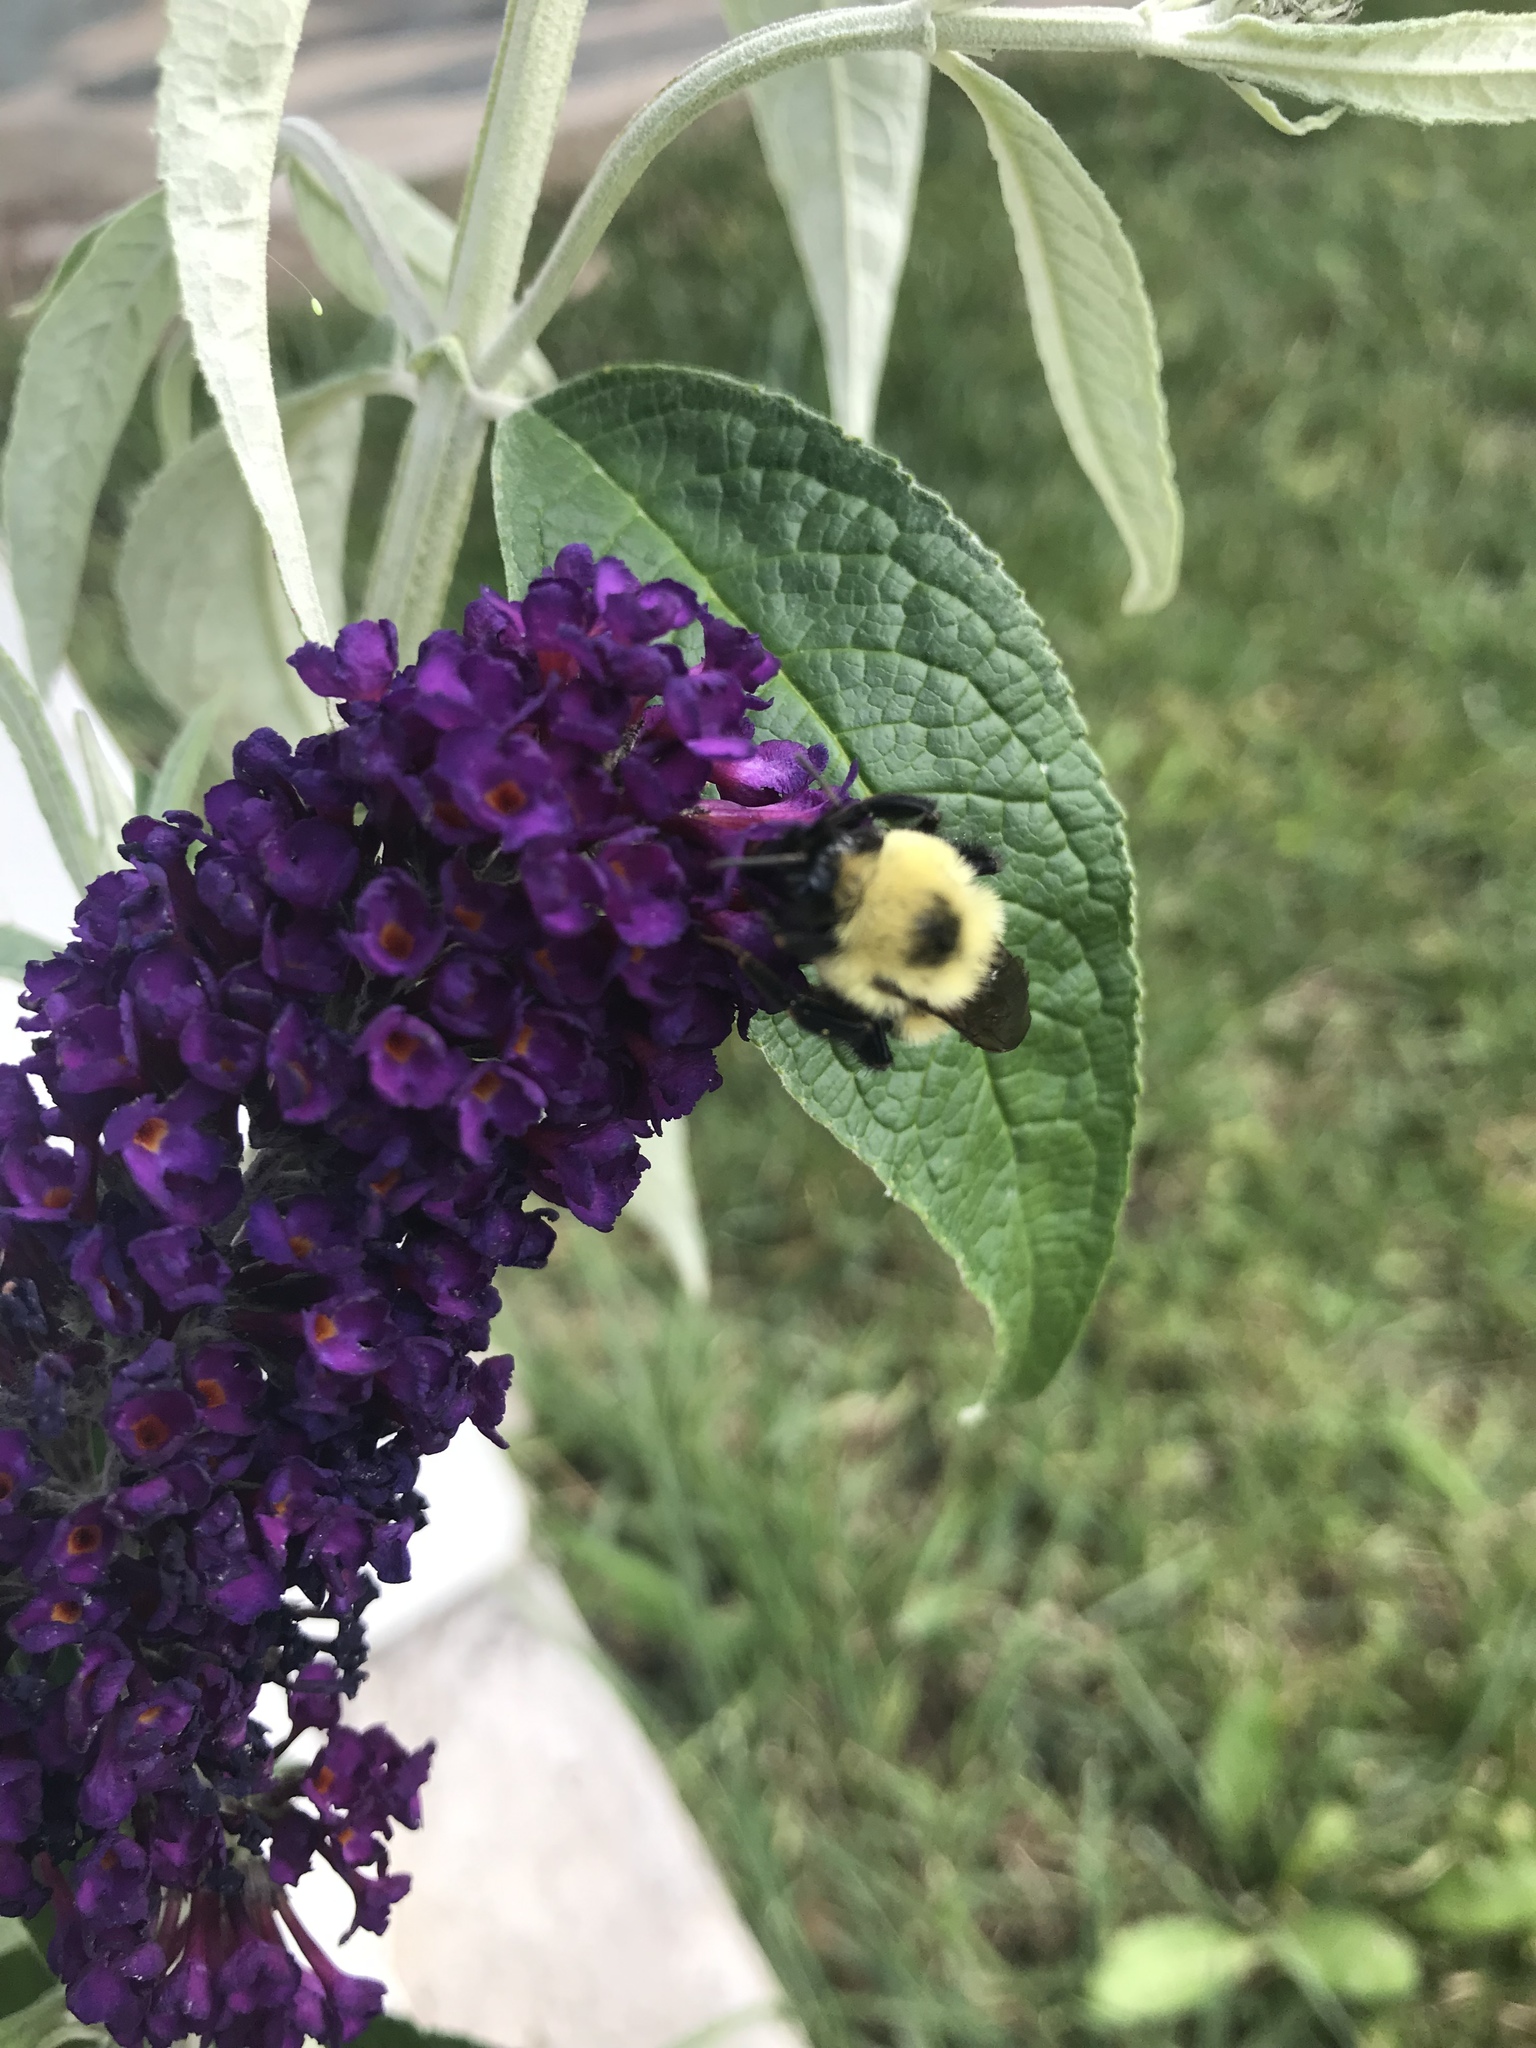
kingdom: Animalia
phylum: Arthropoda
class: Insecta
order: Hymenoptera
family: Apidae
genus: Bombus
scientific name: Bombus bimaculatus
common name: Two-spotted bumble bee
